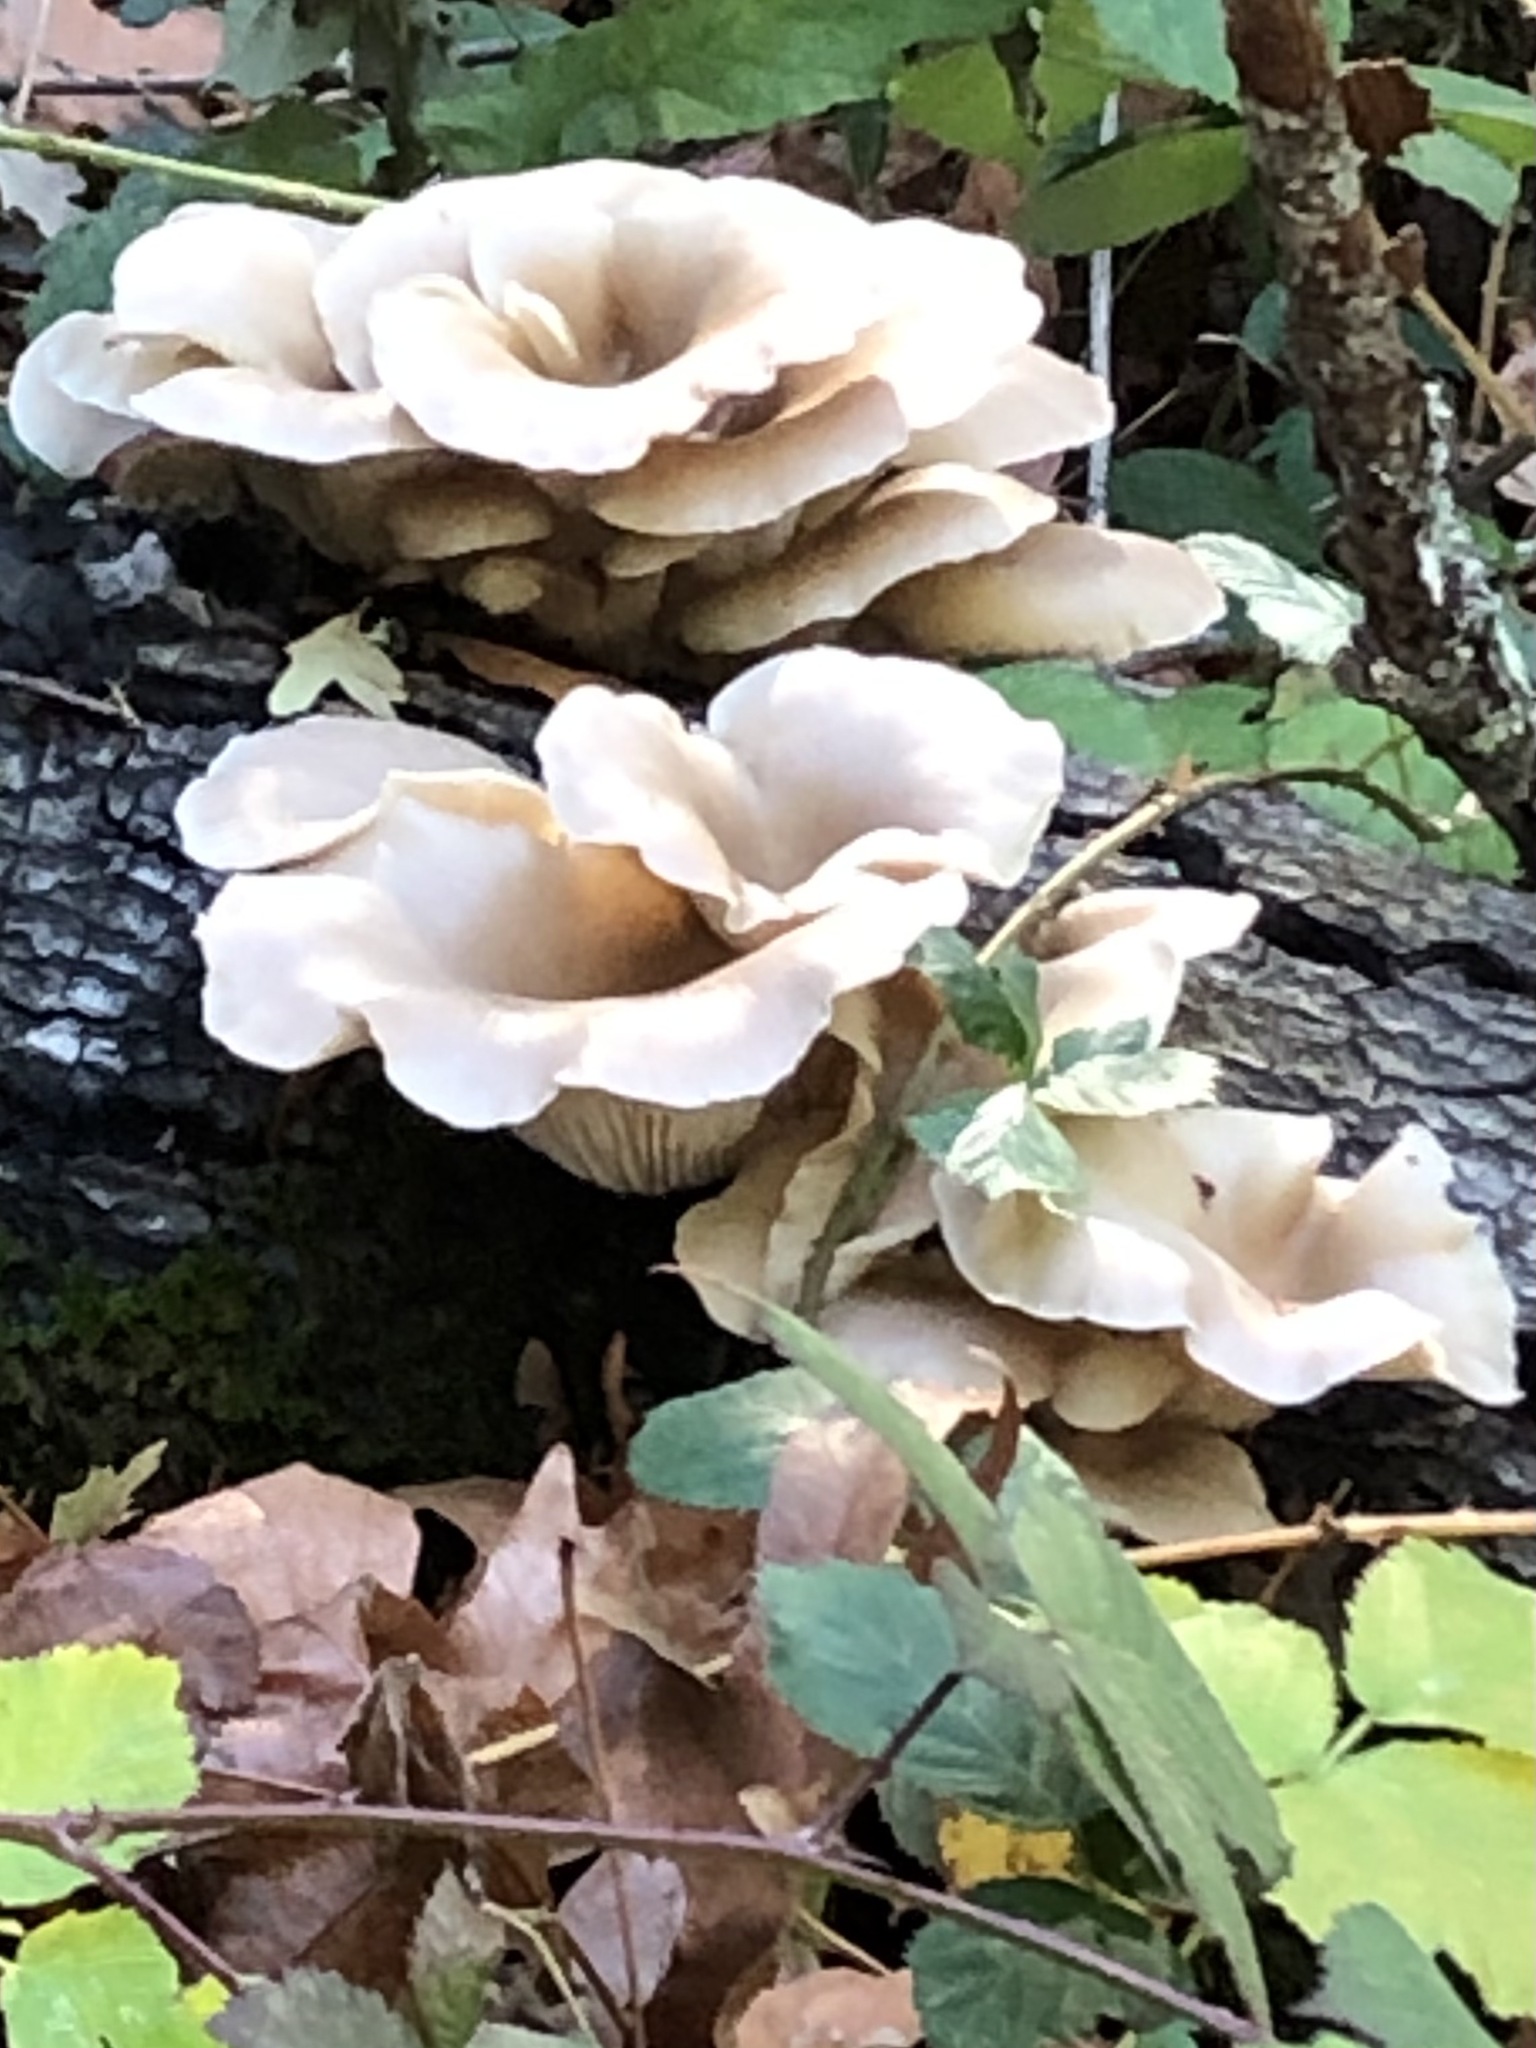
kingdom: Fungi
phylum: Basidiomycota
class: Agaricomycetes
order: Agaricales
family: Pleurotaceae
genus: Pleurotus
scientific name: Pleurotus pulmonarius
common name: Pale oyster
